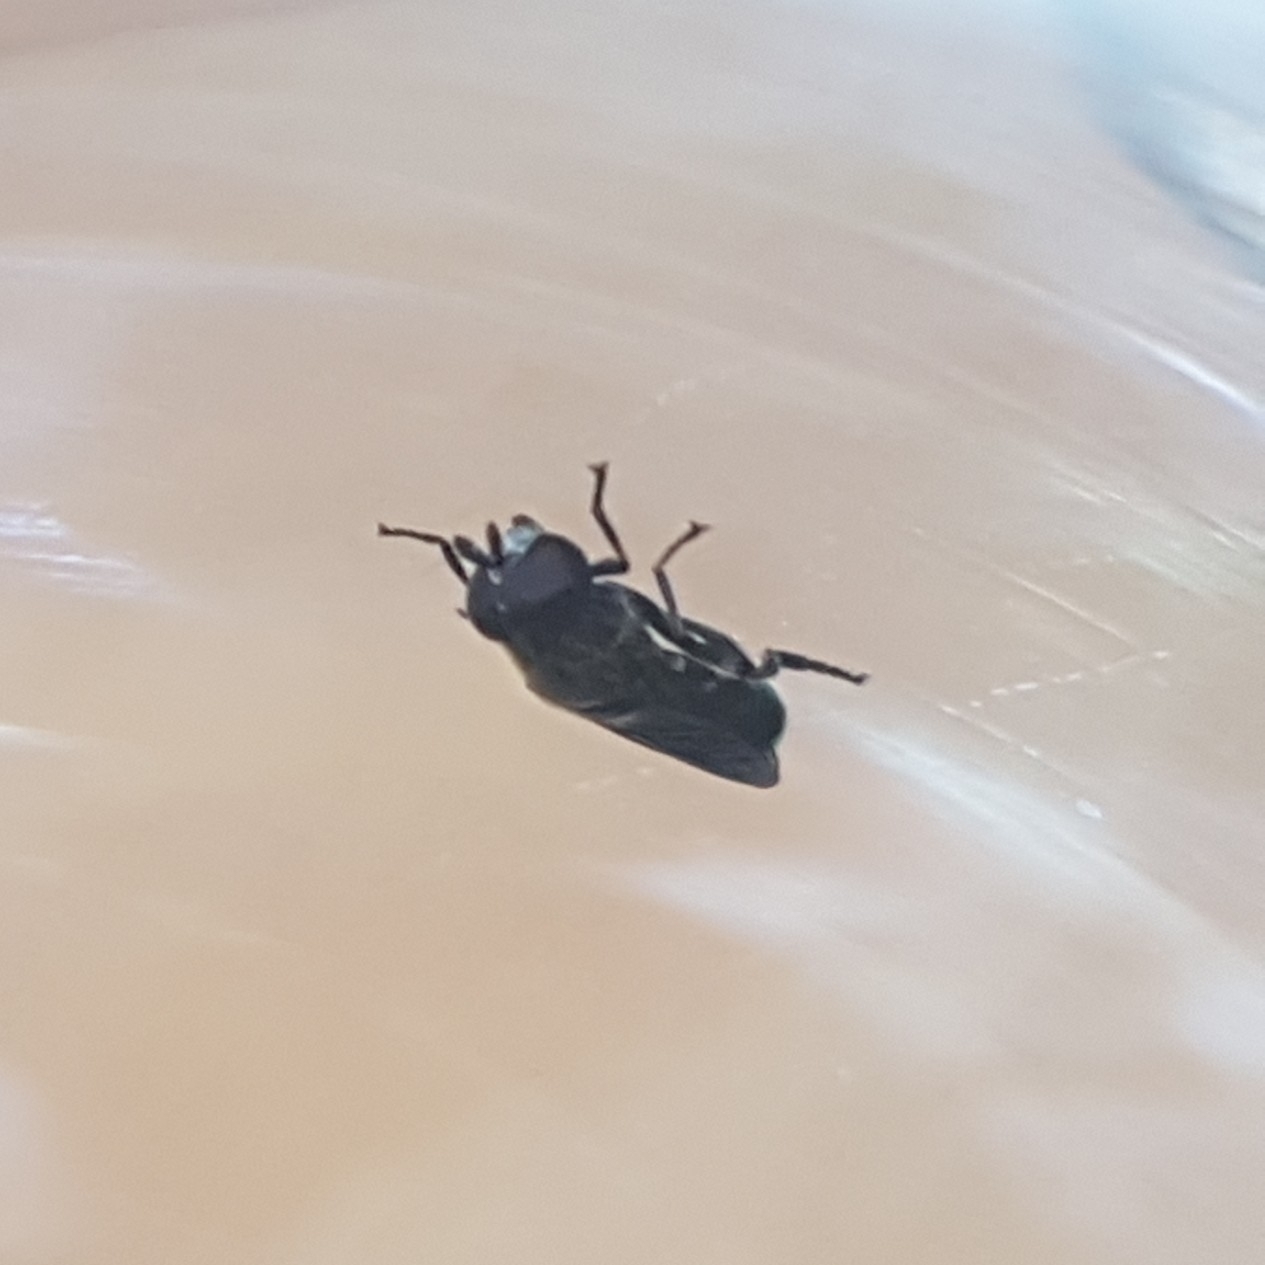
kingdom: Animalia
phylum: Arthropoda
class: Insecta
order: Diptera
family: Syrphidae
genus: Eumerus
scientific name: Eumerus
